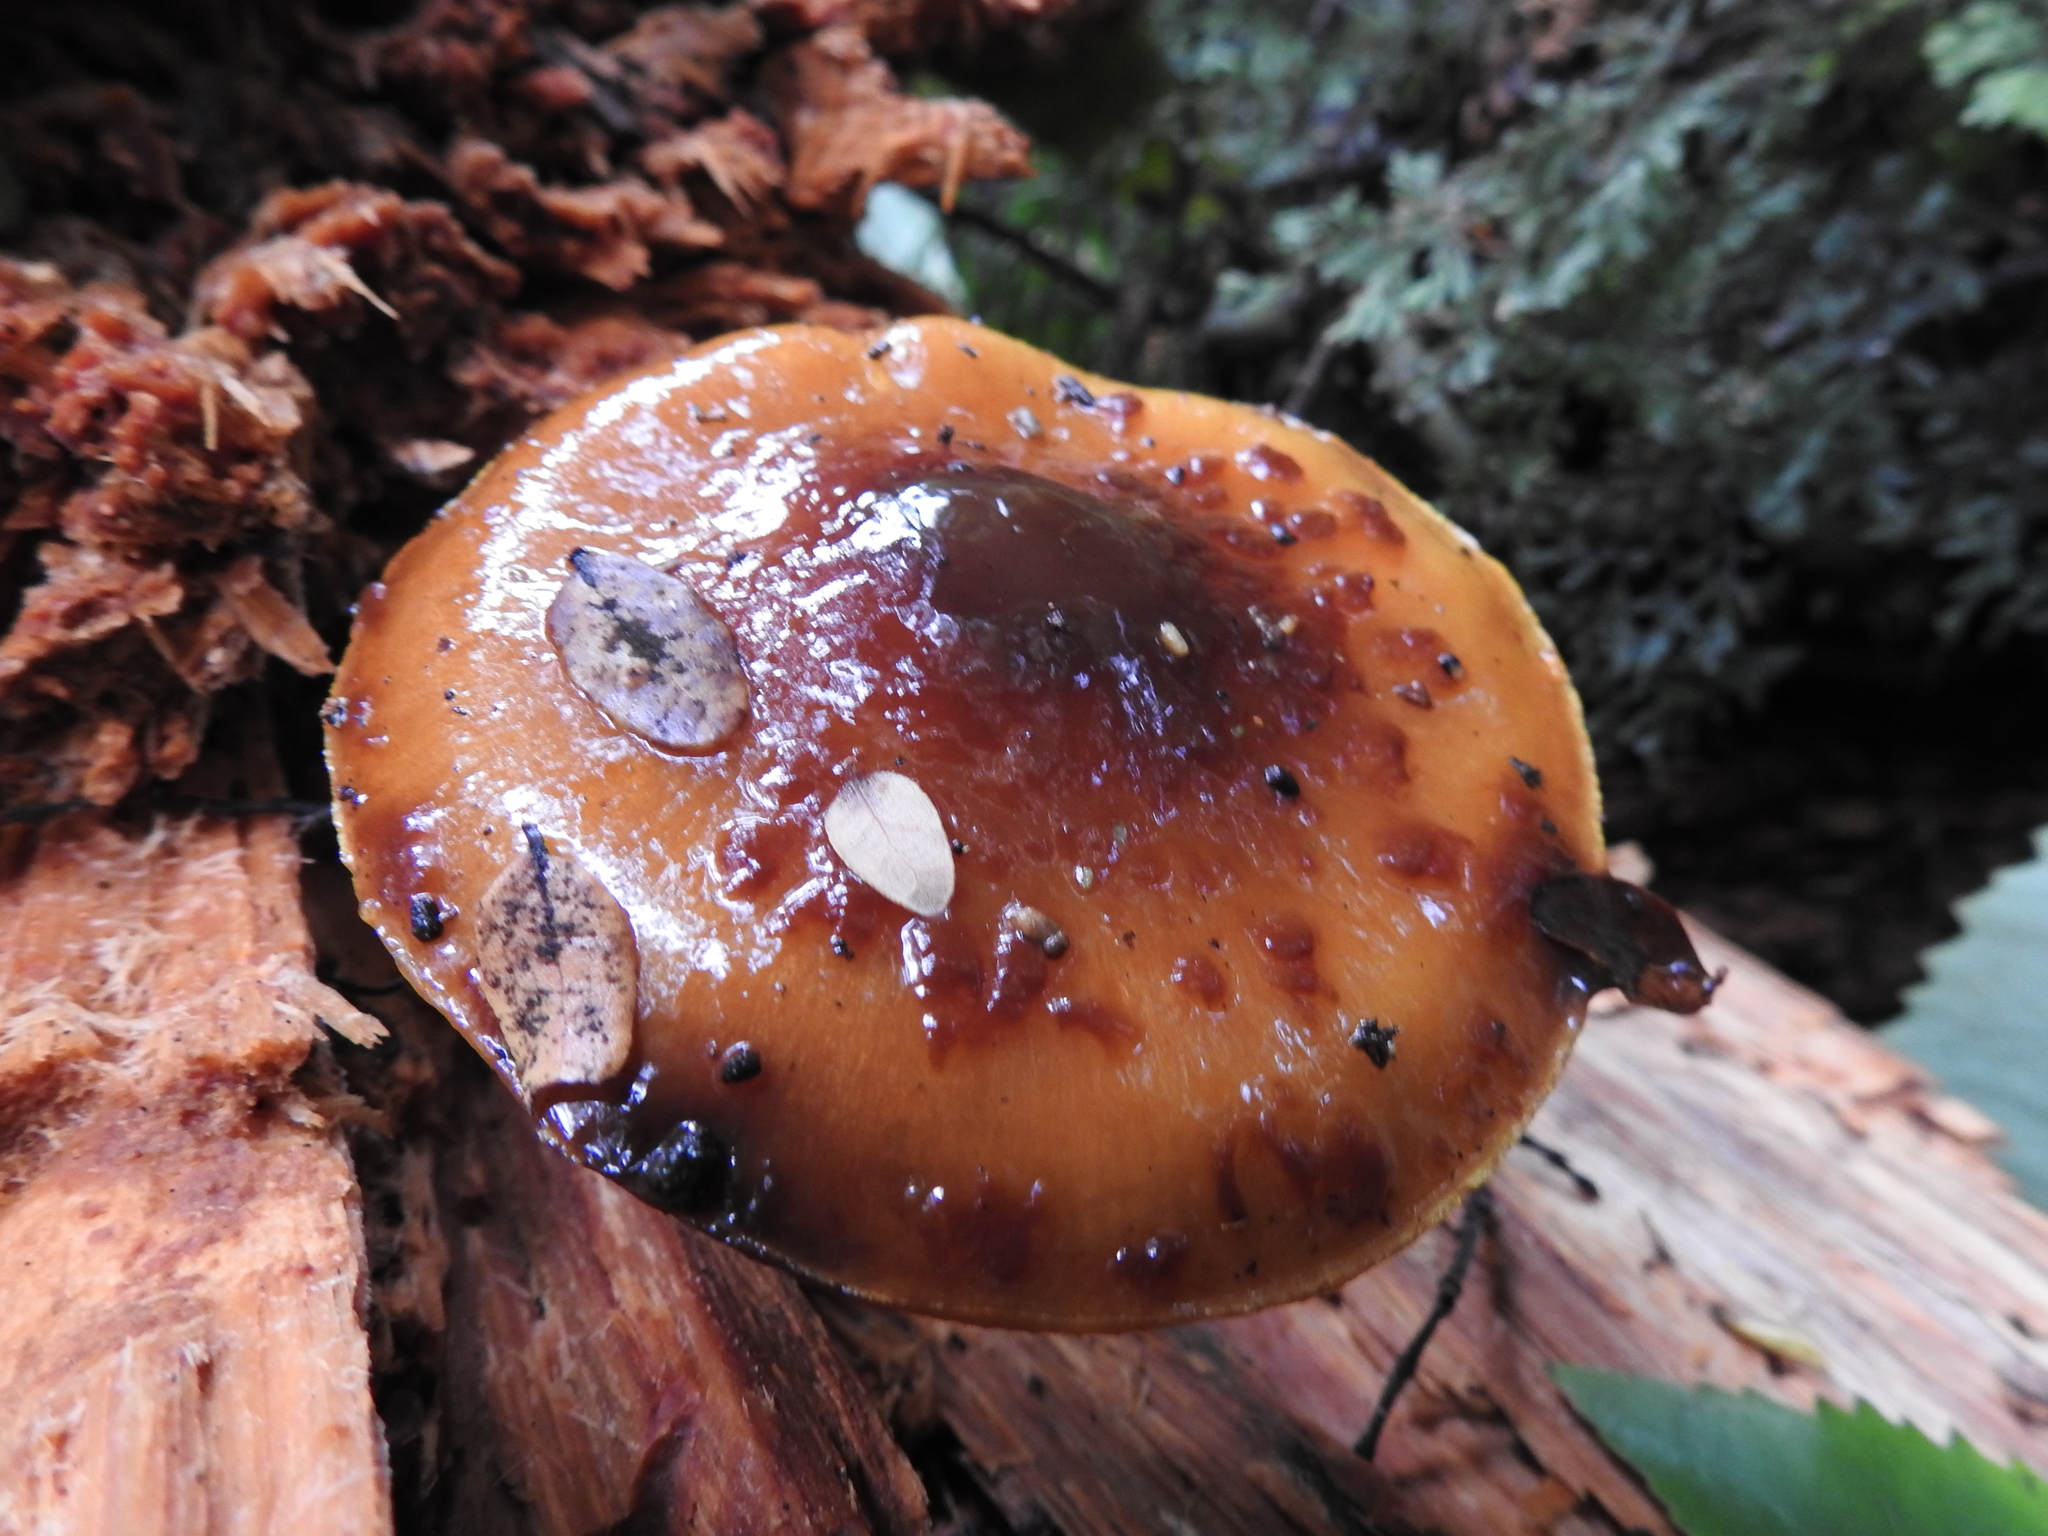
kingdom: Fungi
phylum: Basidiomycota
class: Agaricomycetes
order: Agaricales
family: Strophariaceae
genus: Pholiota
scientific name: Pholiota glutinosa
